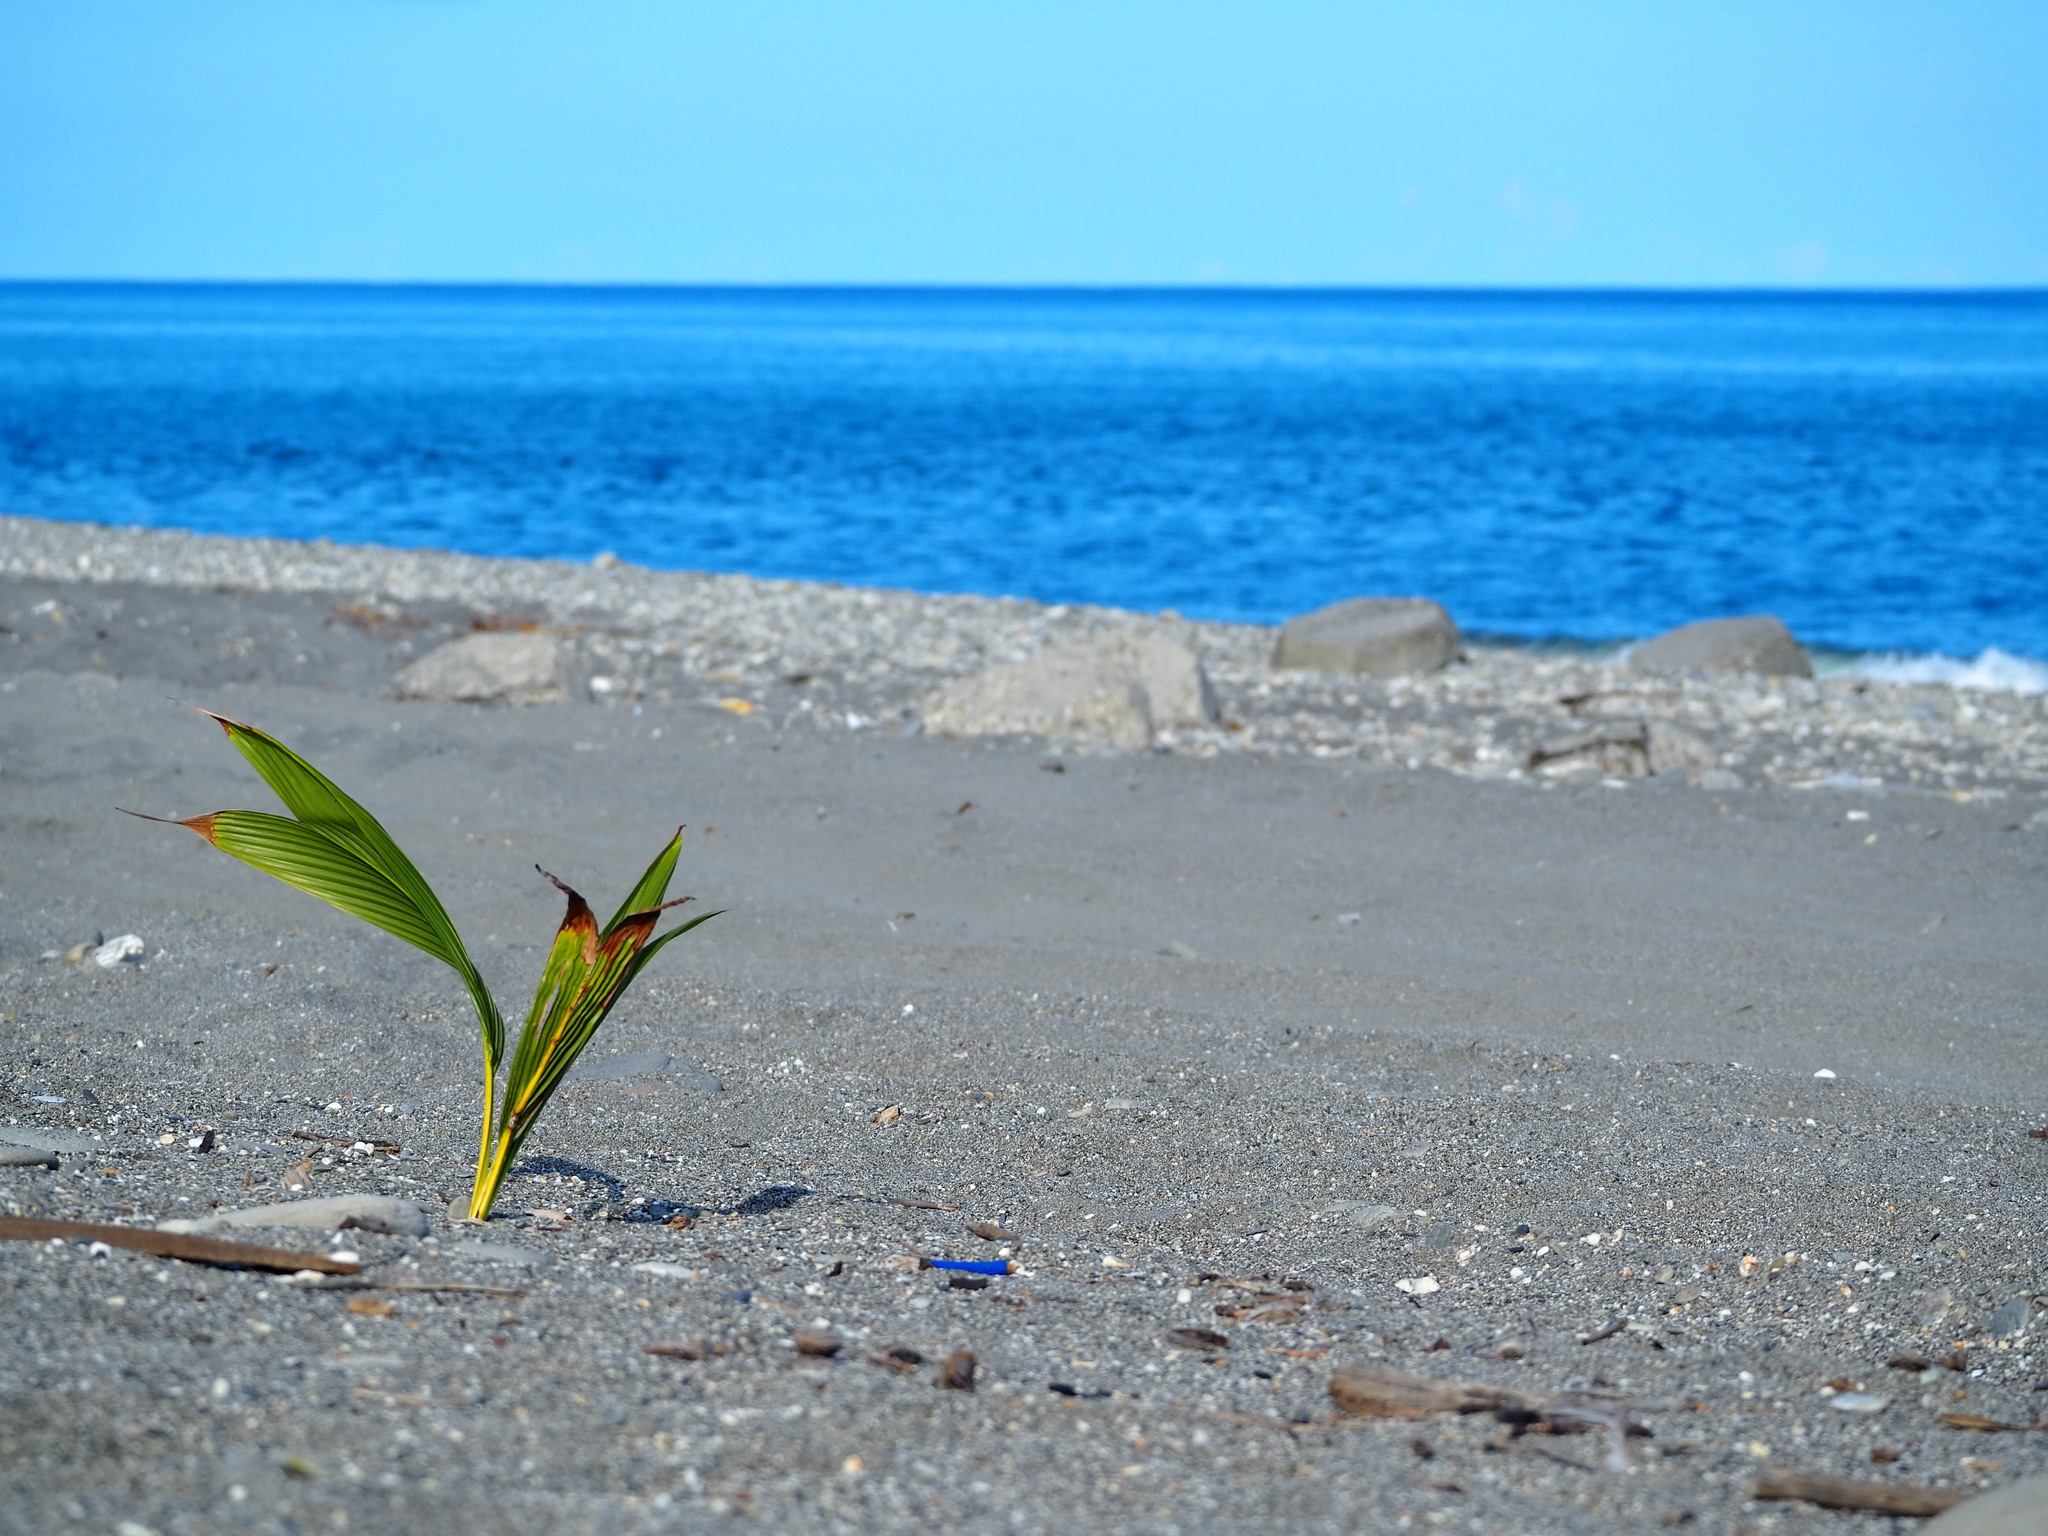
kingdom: Plantae
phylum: Tracheophyta
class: Liliopsida
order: Arecales
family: Arecaceae
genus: Cocos
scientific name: Cocos nucifera
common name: Coconut palm
